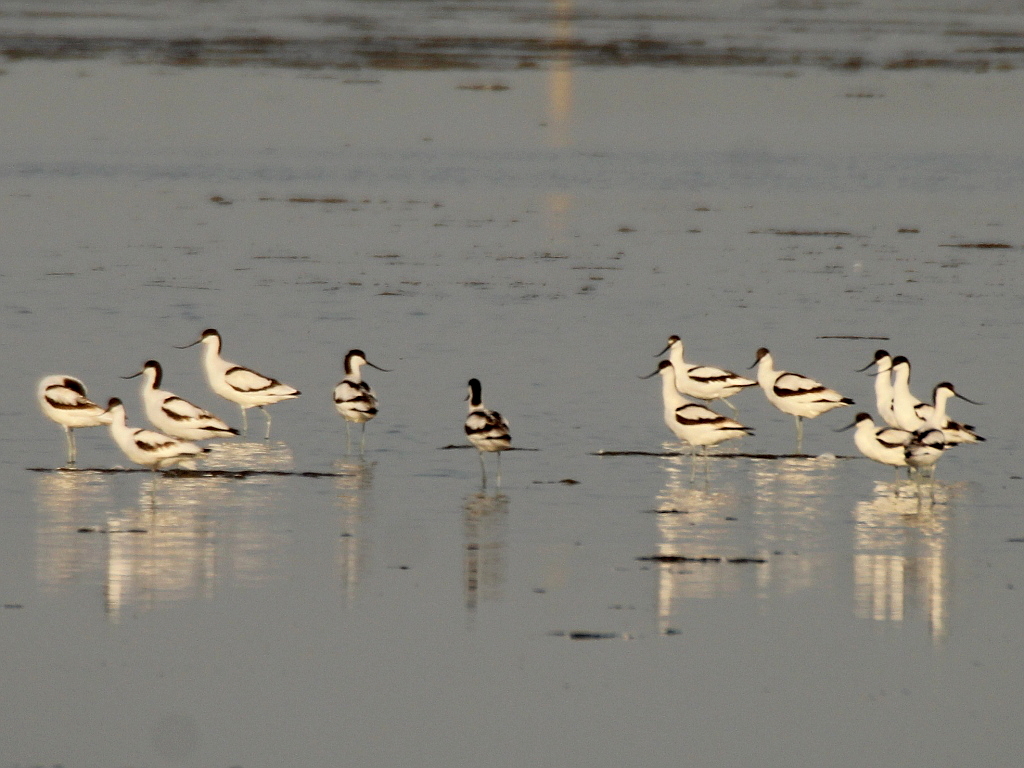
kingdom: Animalia
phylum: Chordata
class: Aves
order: Charadriiformes
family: Recurvirostridae
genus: Recurvirostra
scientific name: Recurvirostra avosetta
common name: Pied avocet
